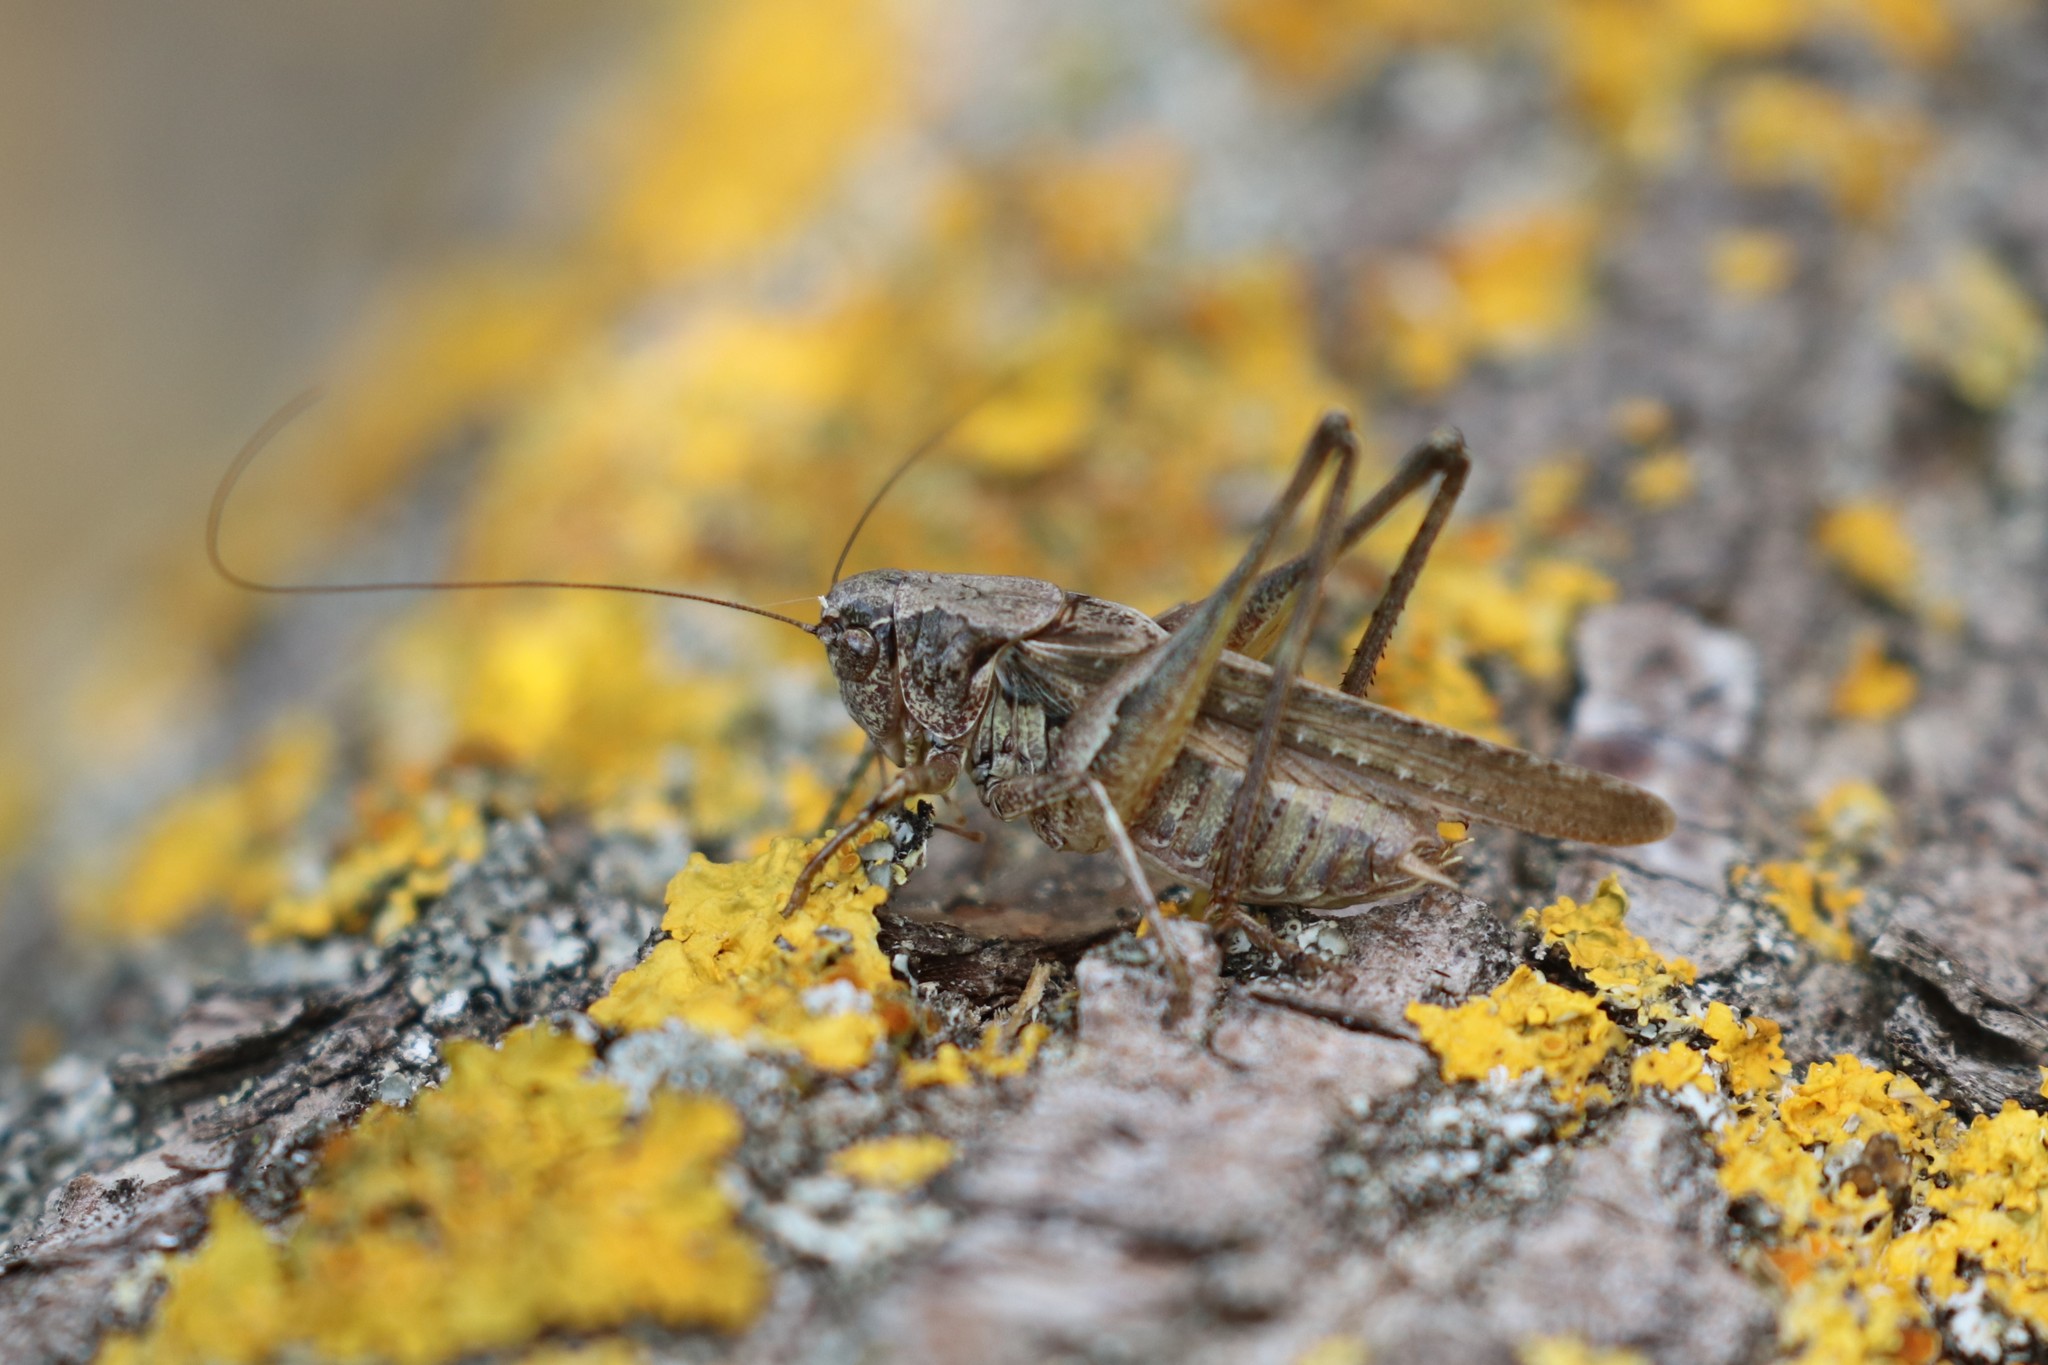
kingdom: Animalia
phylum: Arthropoda
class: Insecta
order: Orthoptera
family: Tettigoniidae
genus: Platycleis
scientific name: Platycleis albopunctata
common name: Grey bush-cricket
